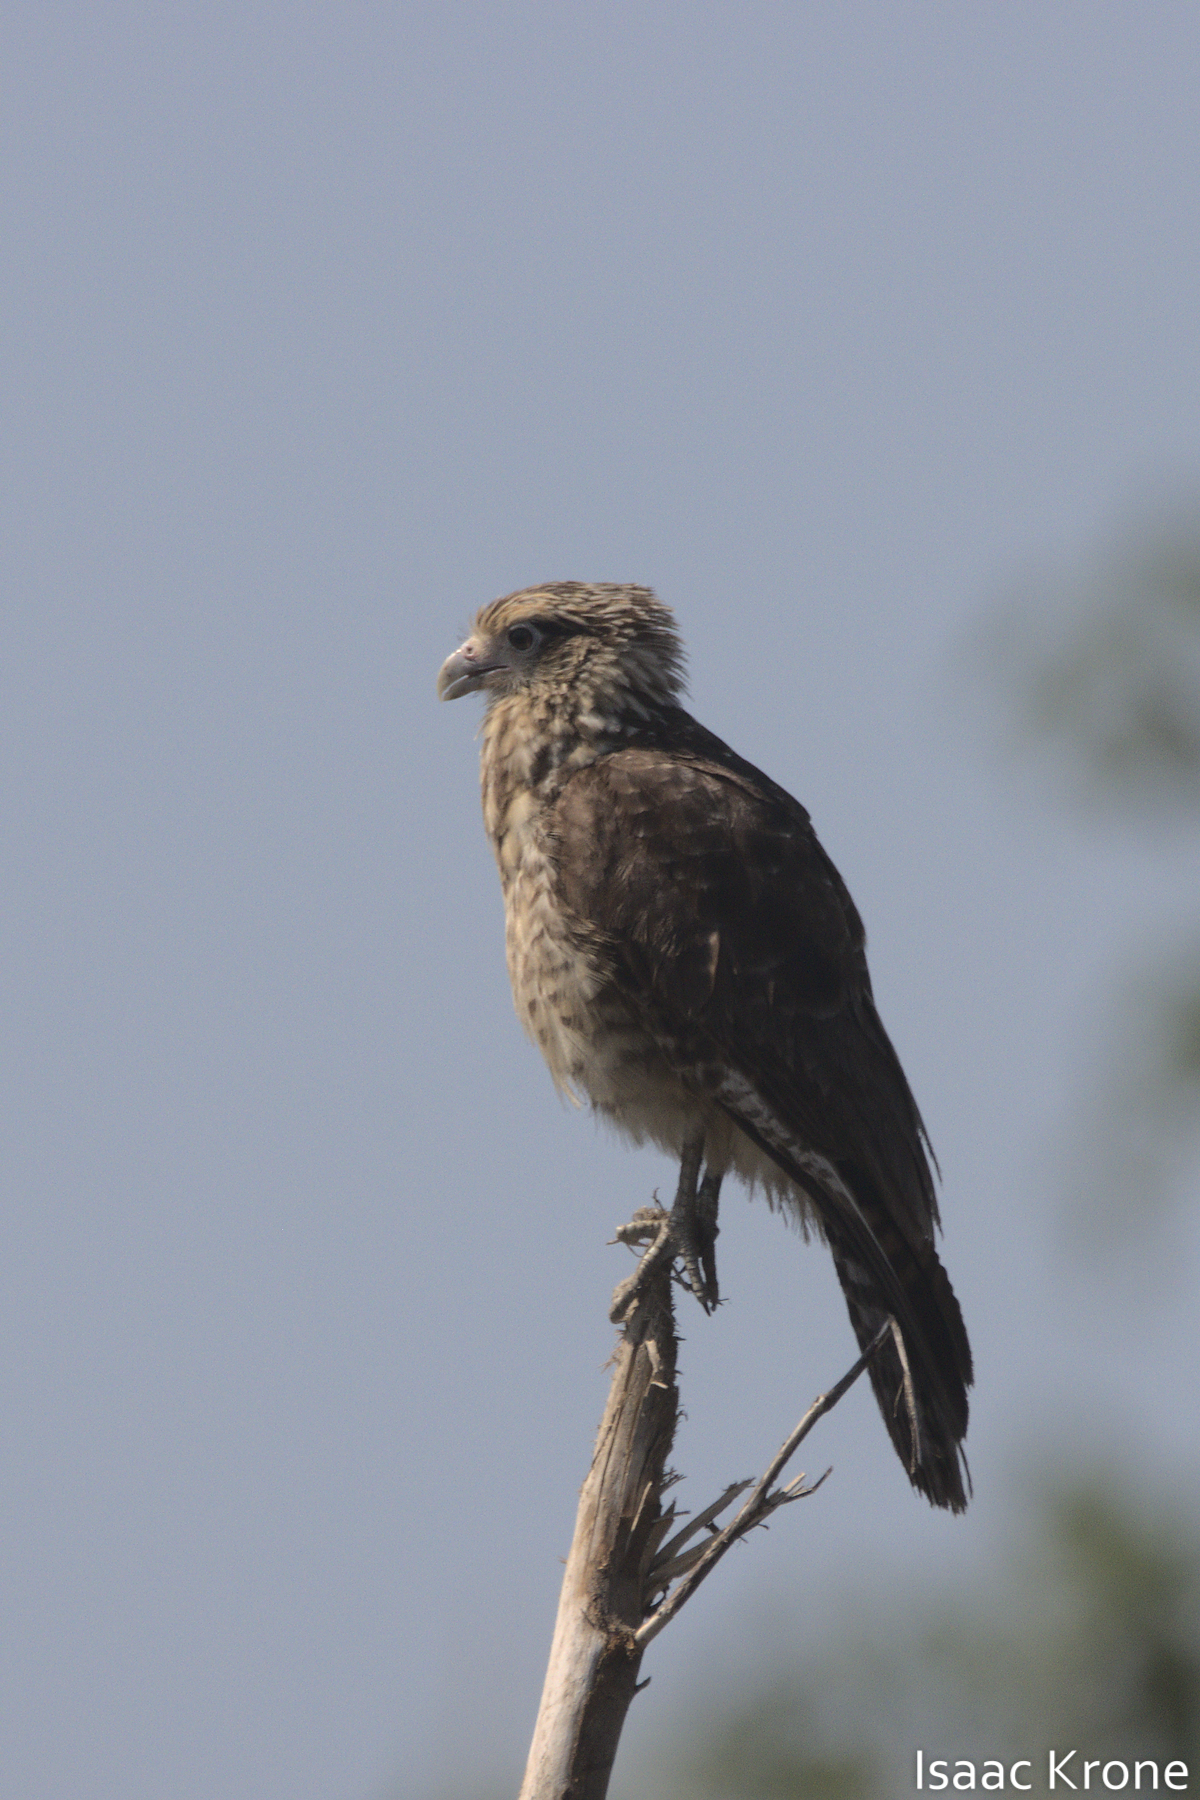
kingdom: Animalia
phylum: Chordata
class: Aves
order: Falconiformes
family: Falconidae
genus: Daptrius
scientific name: Daptrius
